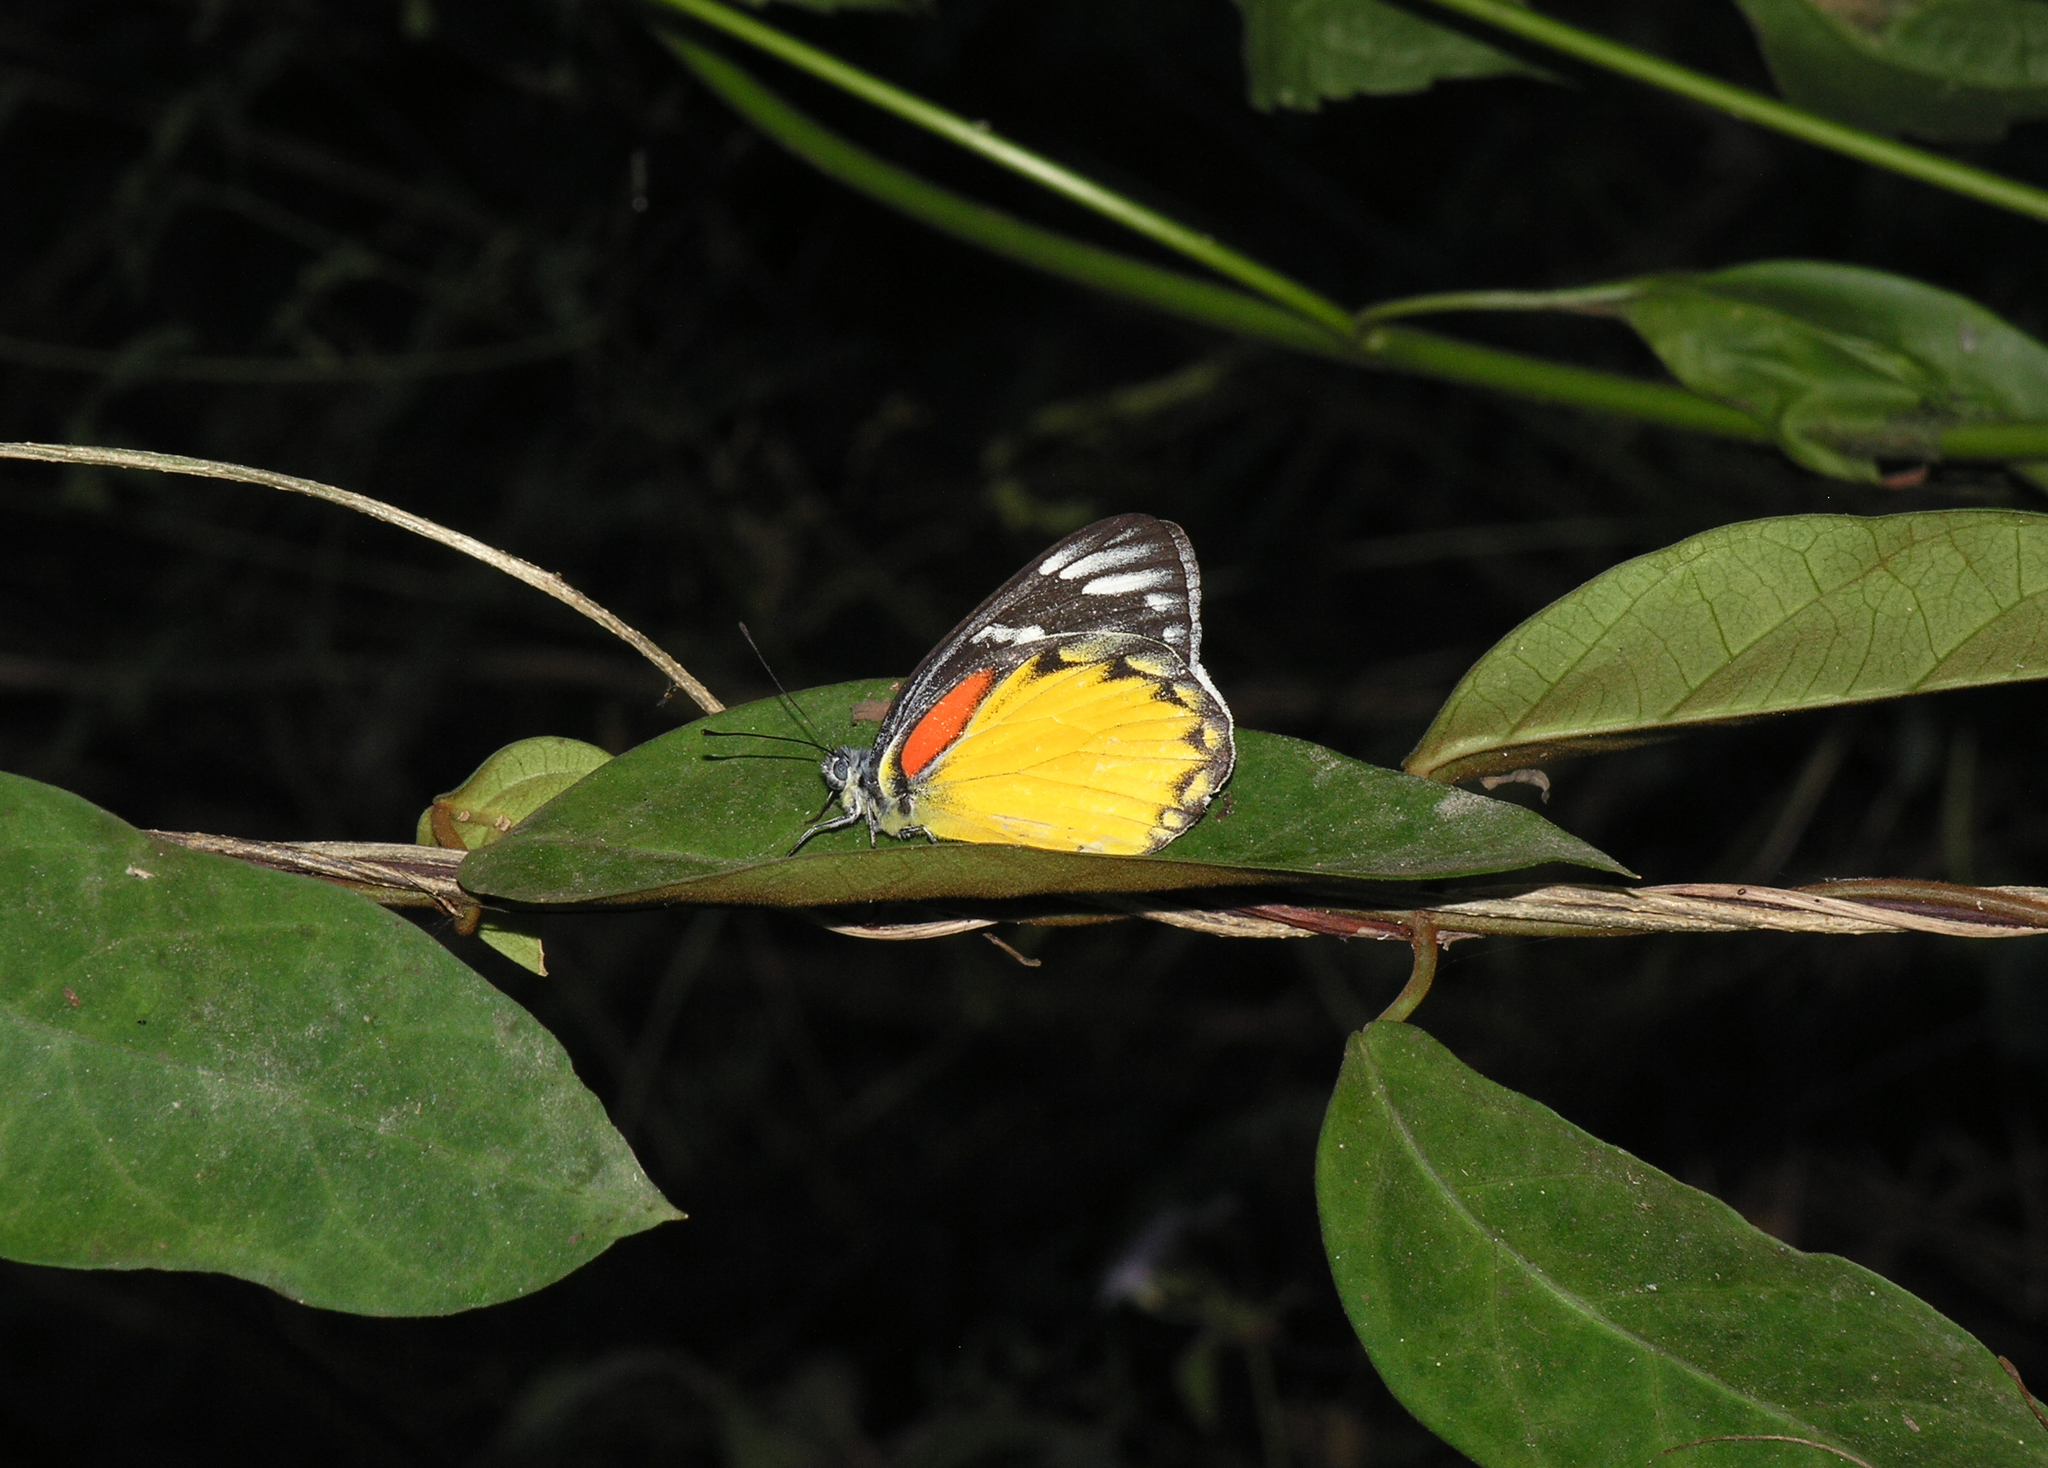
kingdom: Animalia
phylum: Arthropoda
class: Insecta
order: Lepidoptera
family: Pieridae
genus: Delias
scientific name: Delias descombesi
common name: Red-spot jezebel
